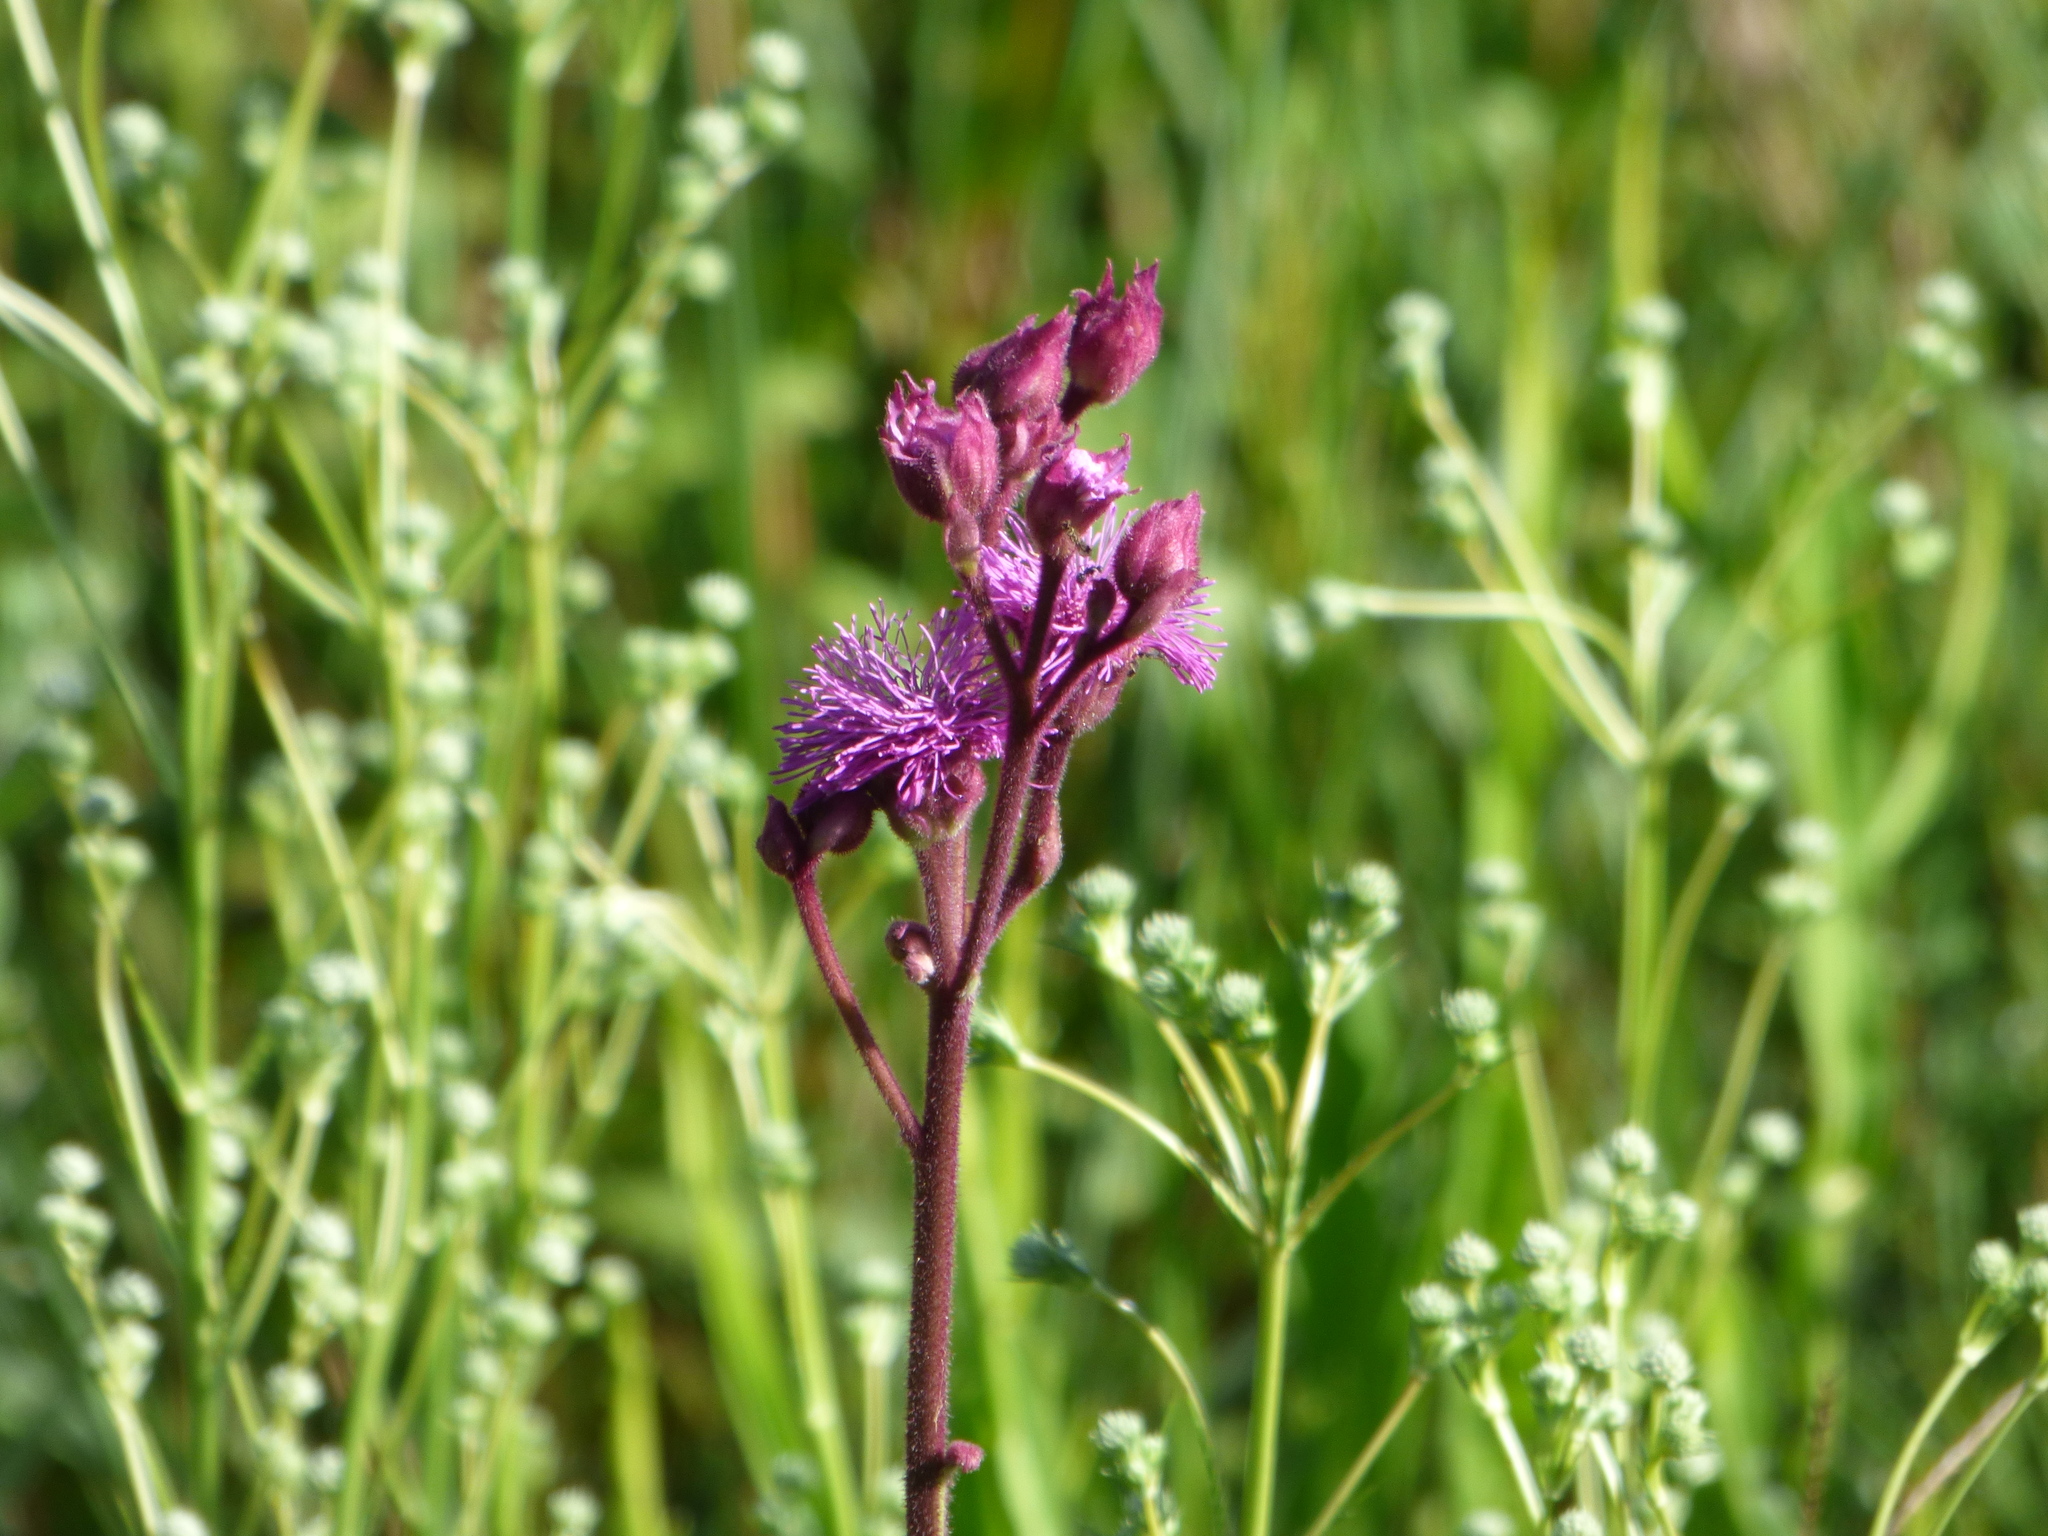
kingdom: Plantae
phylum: Tracheophyta
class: Magnoliopsida
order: Asterales
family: Asteraceae
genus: Campuloclinium
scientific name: Campuloclinium macrocephalum
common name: Pompomweed
